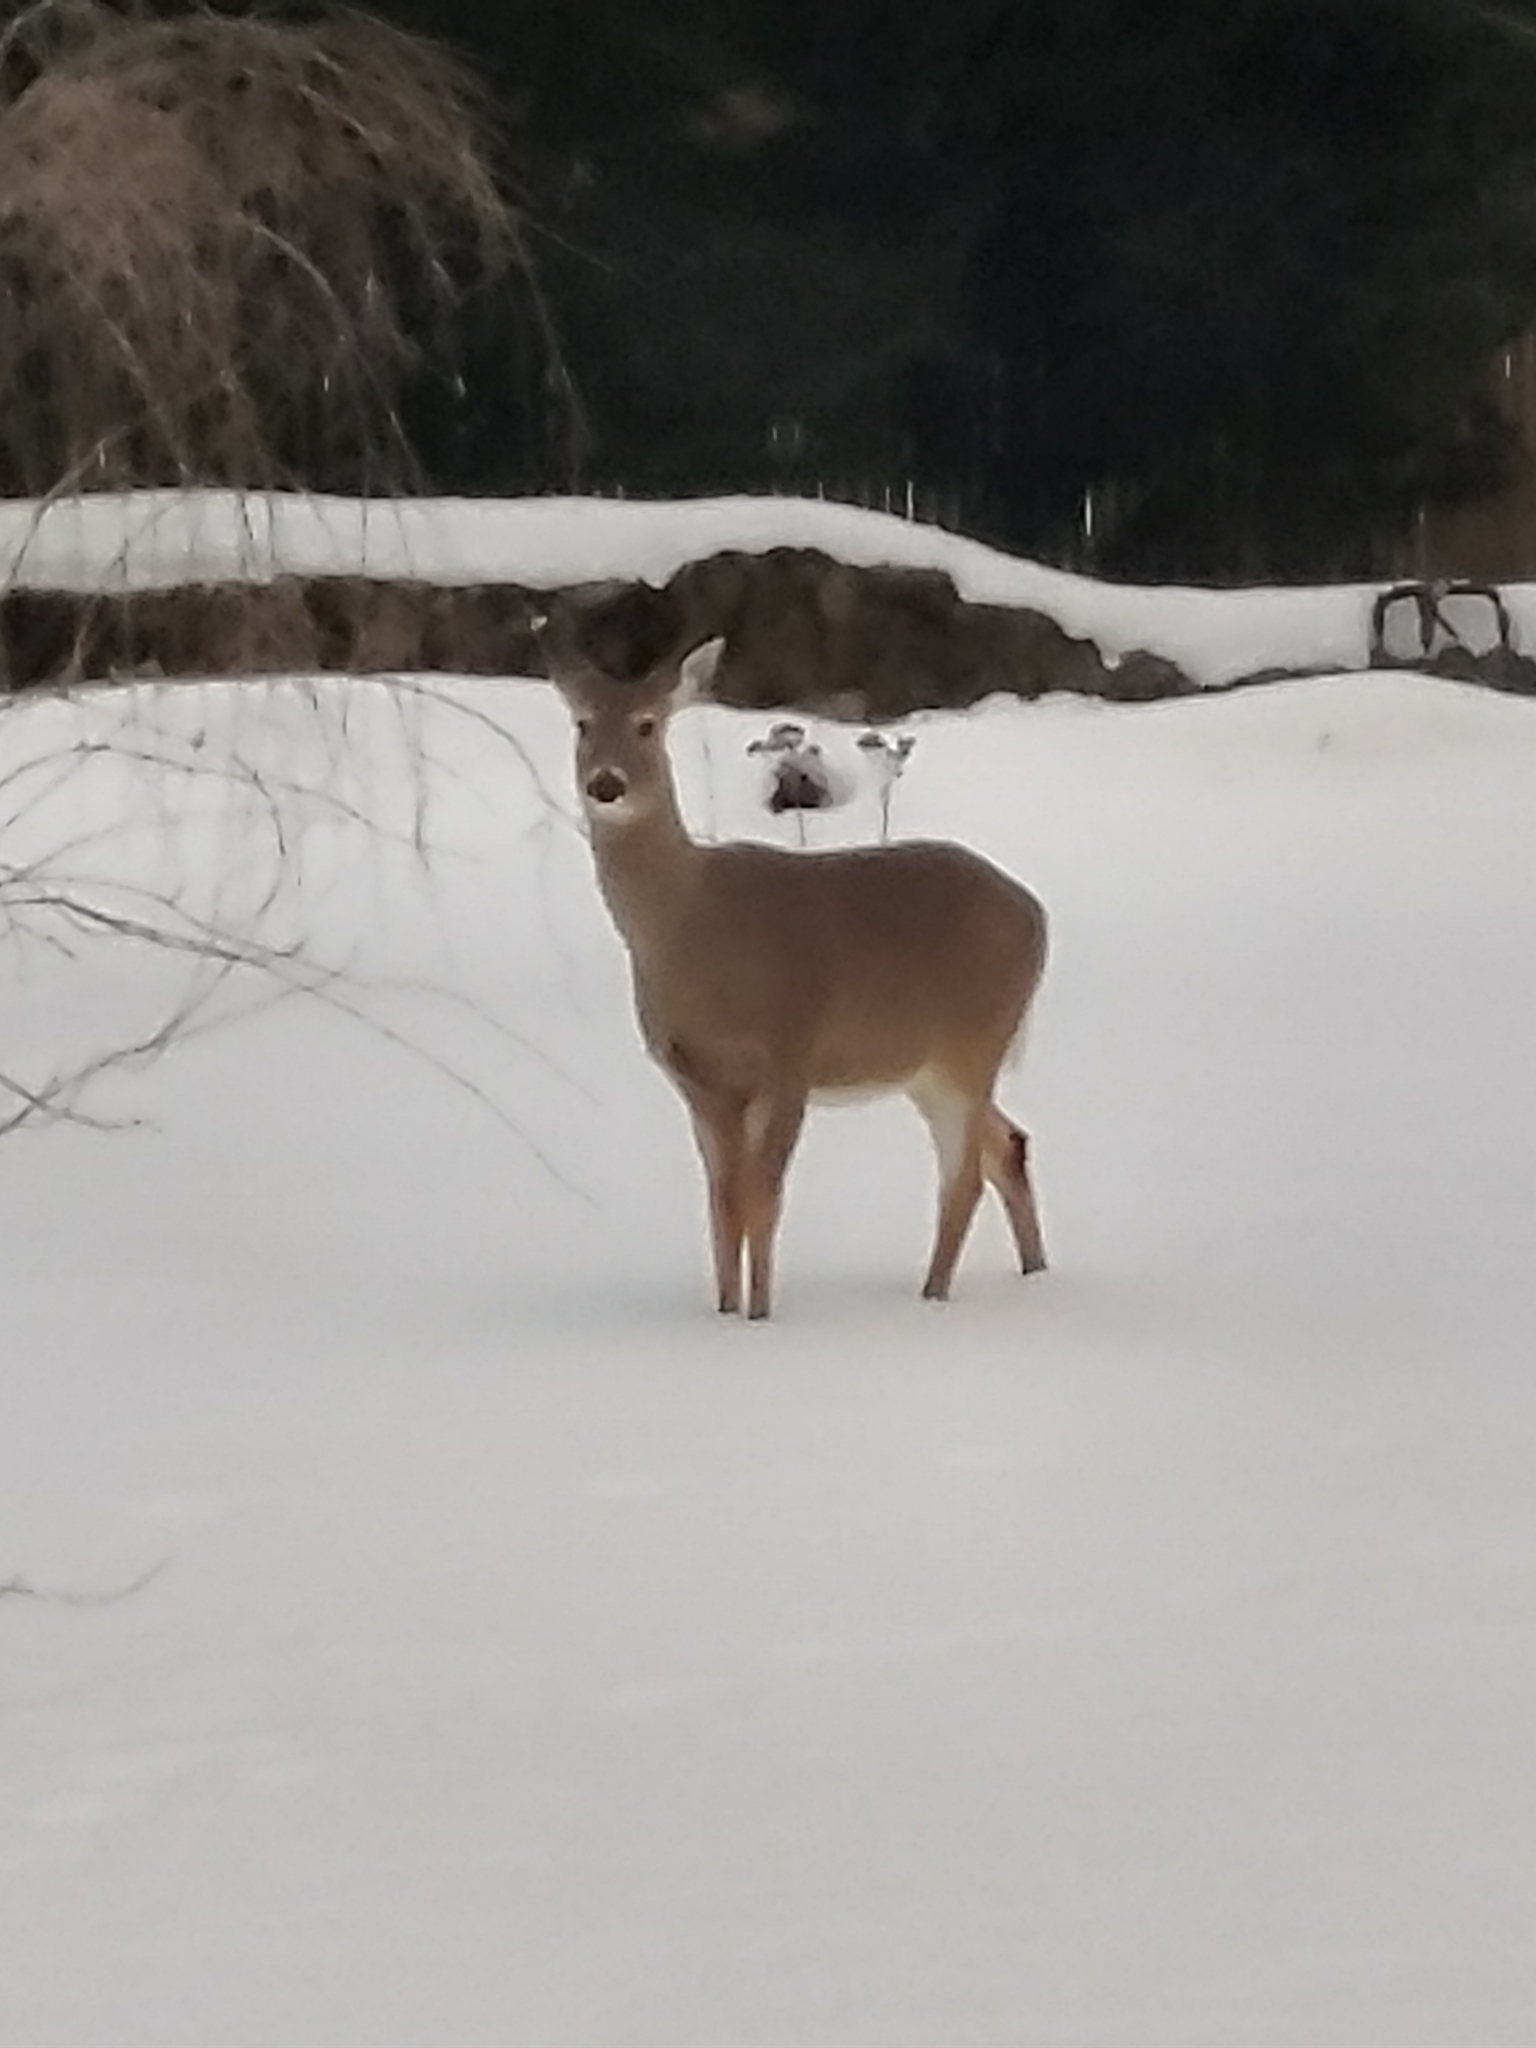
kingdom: Animalia
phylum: Chordata
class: Mammalia
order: Artiodactyla
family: Cervidae
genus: Odocoileus
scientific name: Odocoileus virginianus
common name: White-tailed deer
